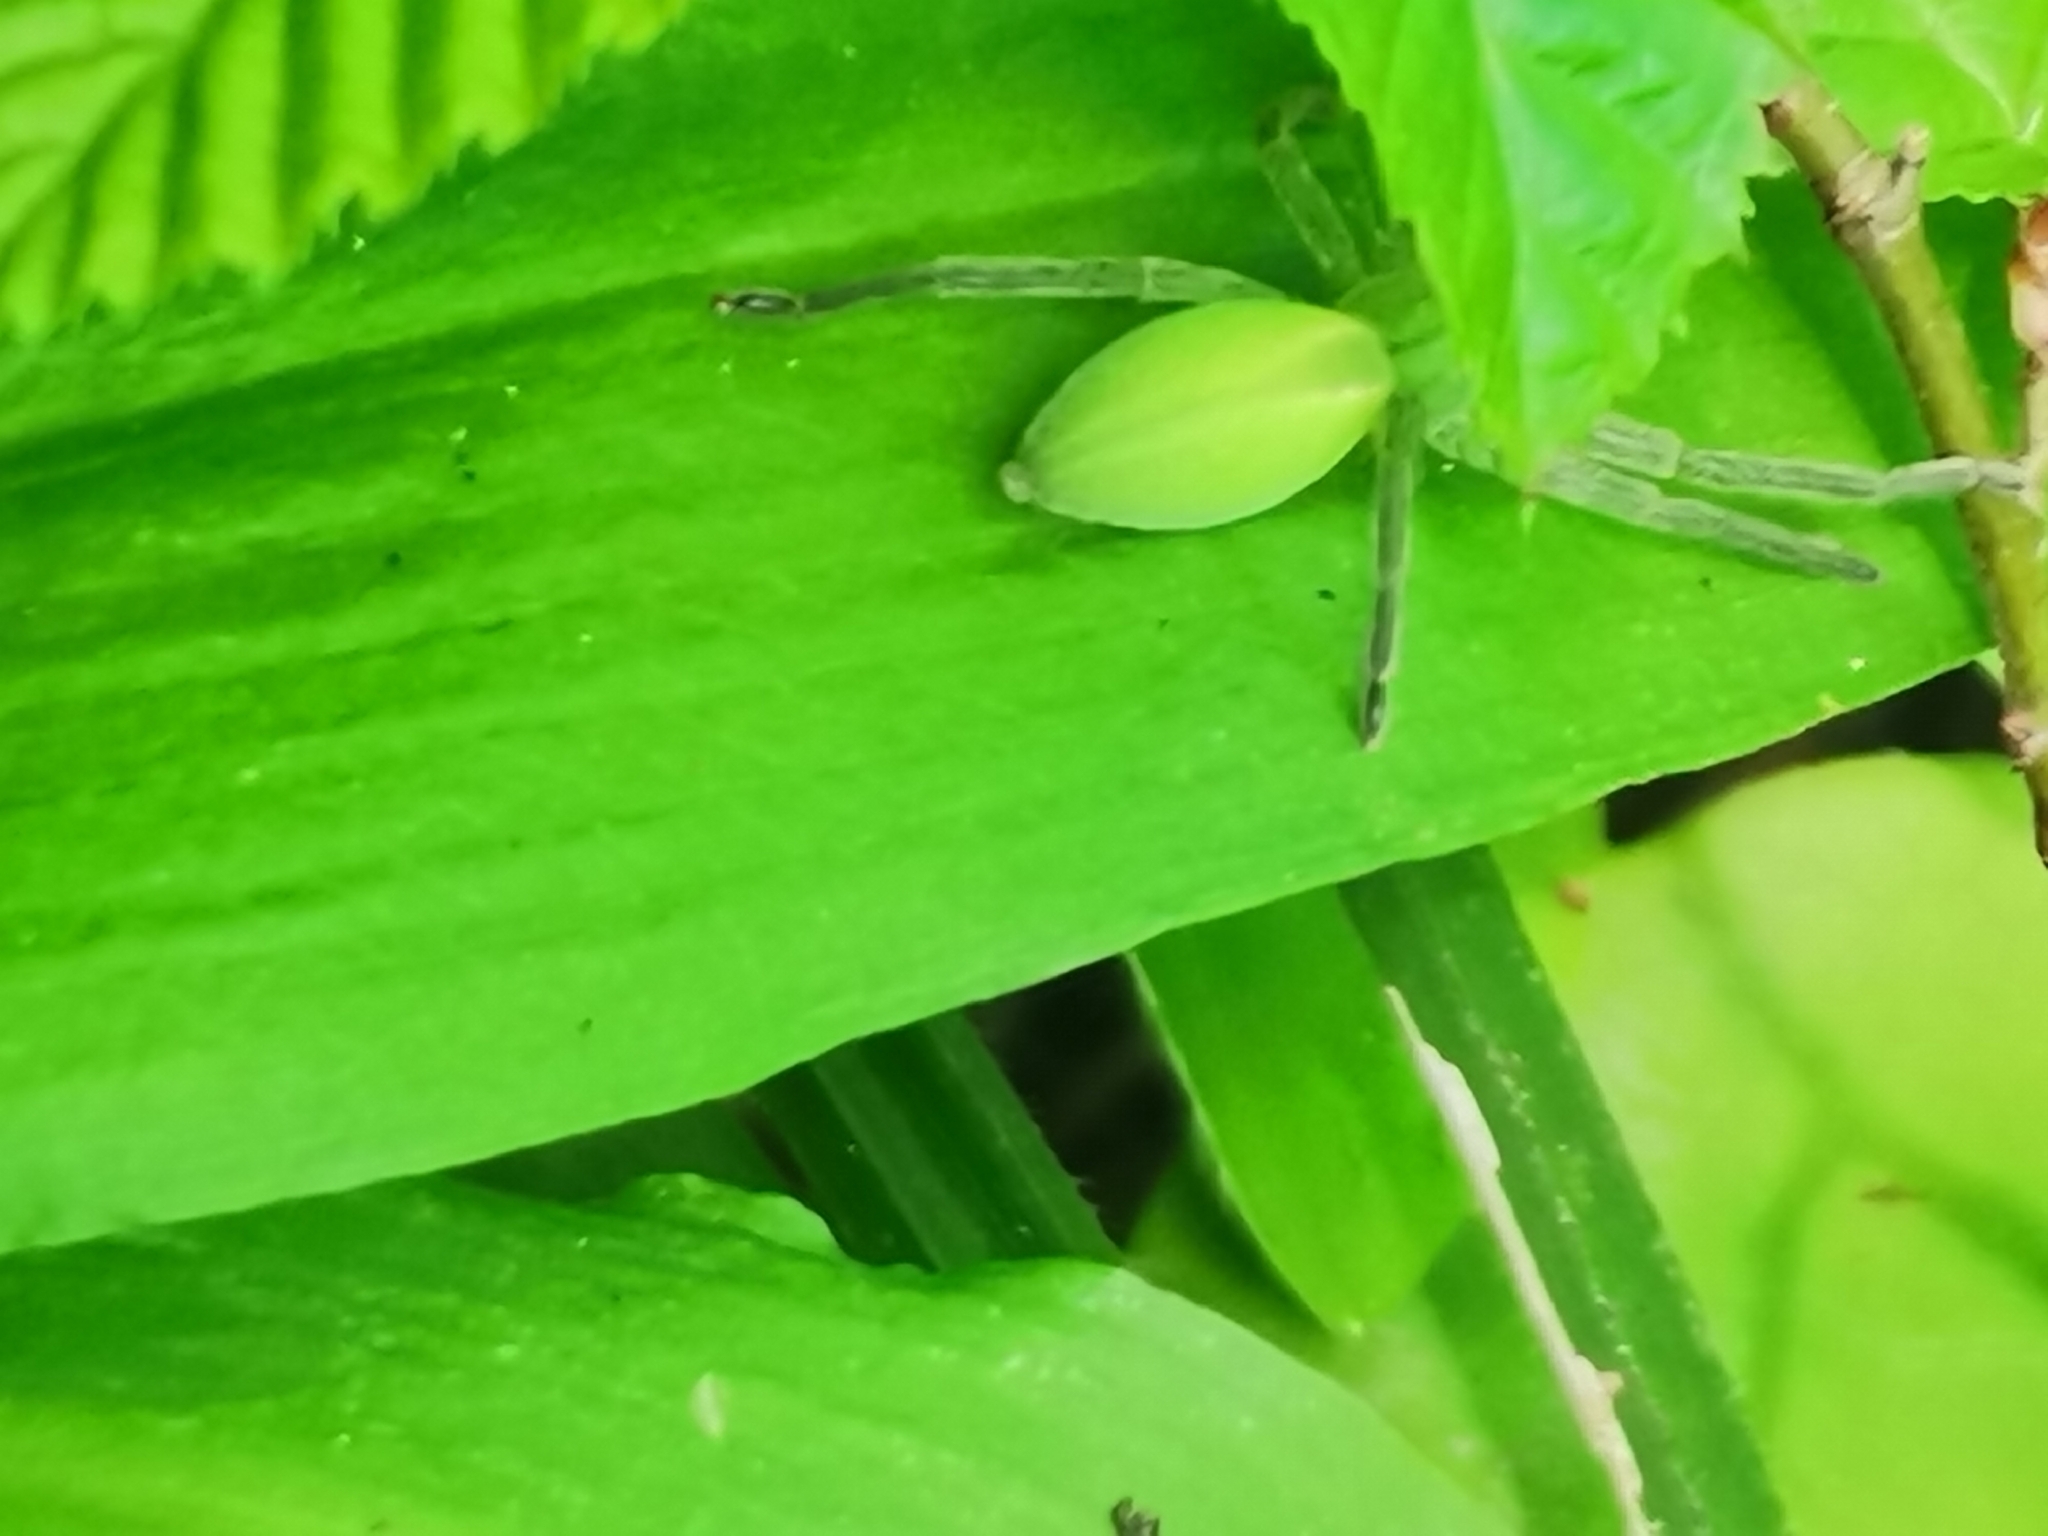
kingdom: Animalia
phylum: Arthropoda
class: Arachnida
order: Araneae
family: Sparassidae
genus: Micrommata
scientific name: Micrommata virescens
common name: Green spider
